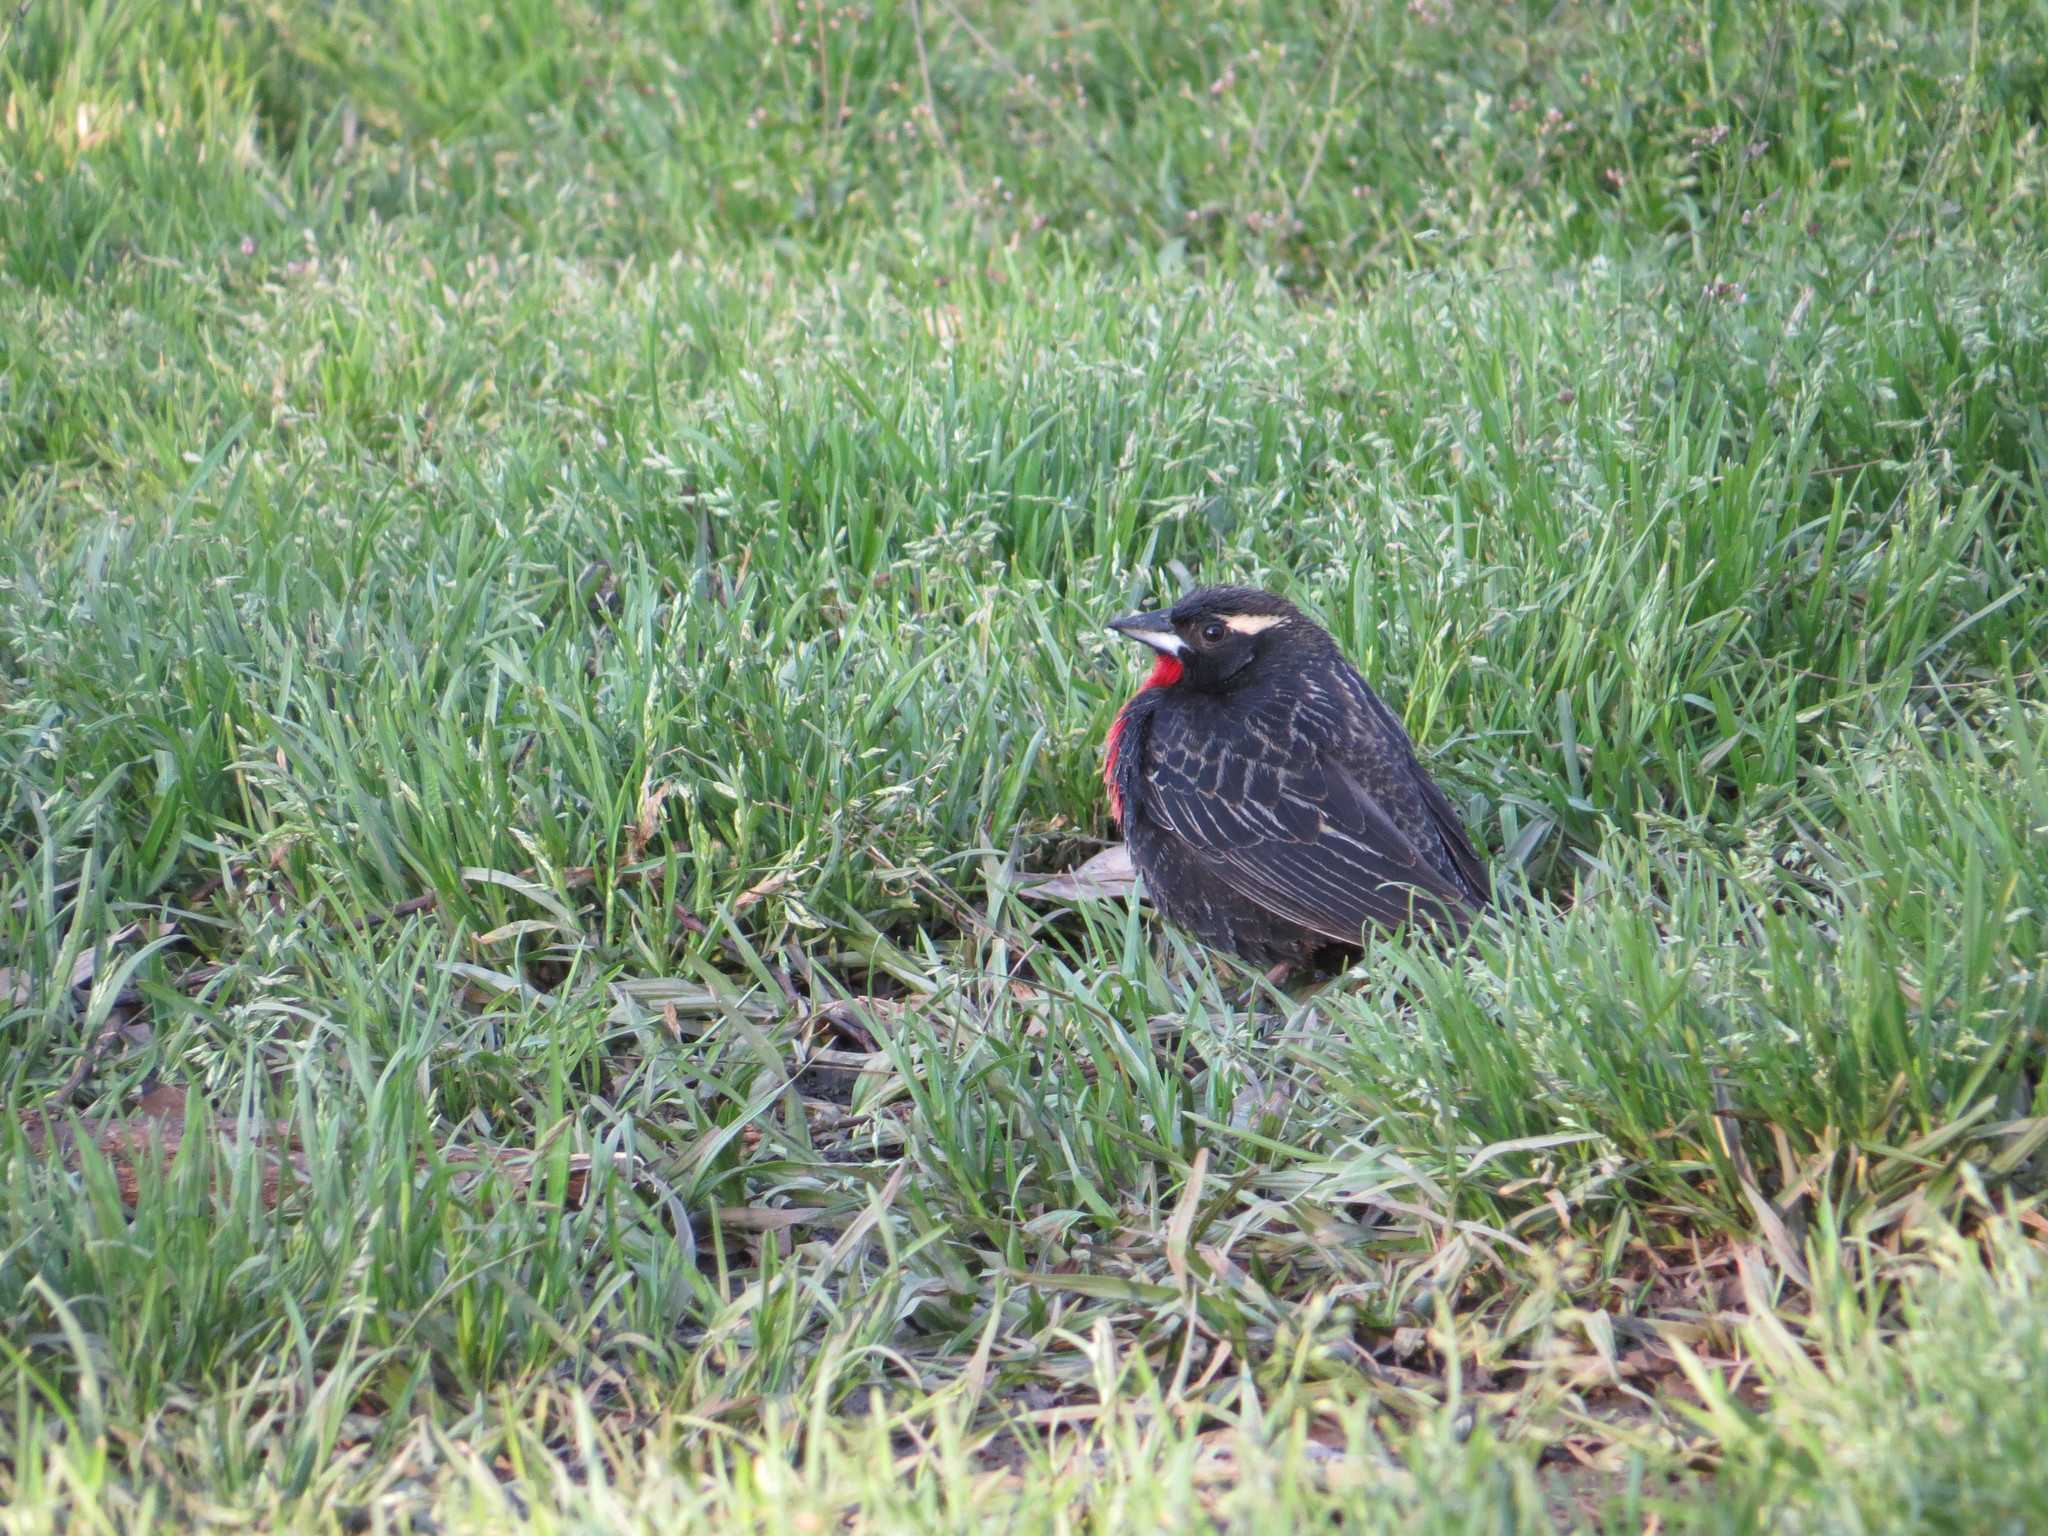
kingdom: Animalia
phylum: Chordata
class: Aves
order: Passeriformes
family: Icteridae
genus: Sturnella
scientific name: Sturnella superciliaris
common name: White-browed blackbird
